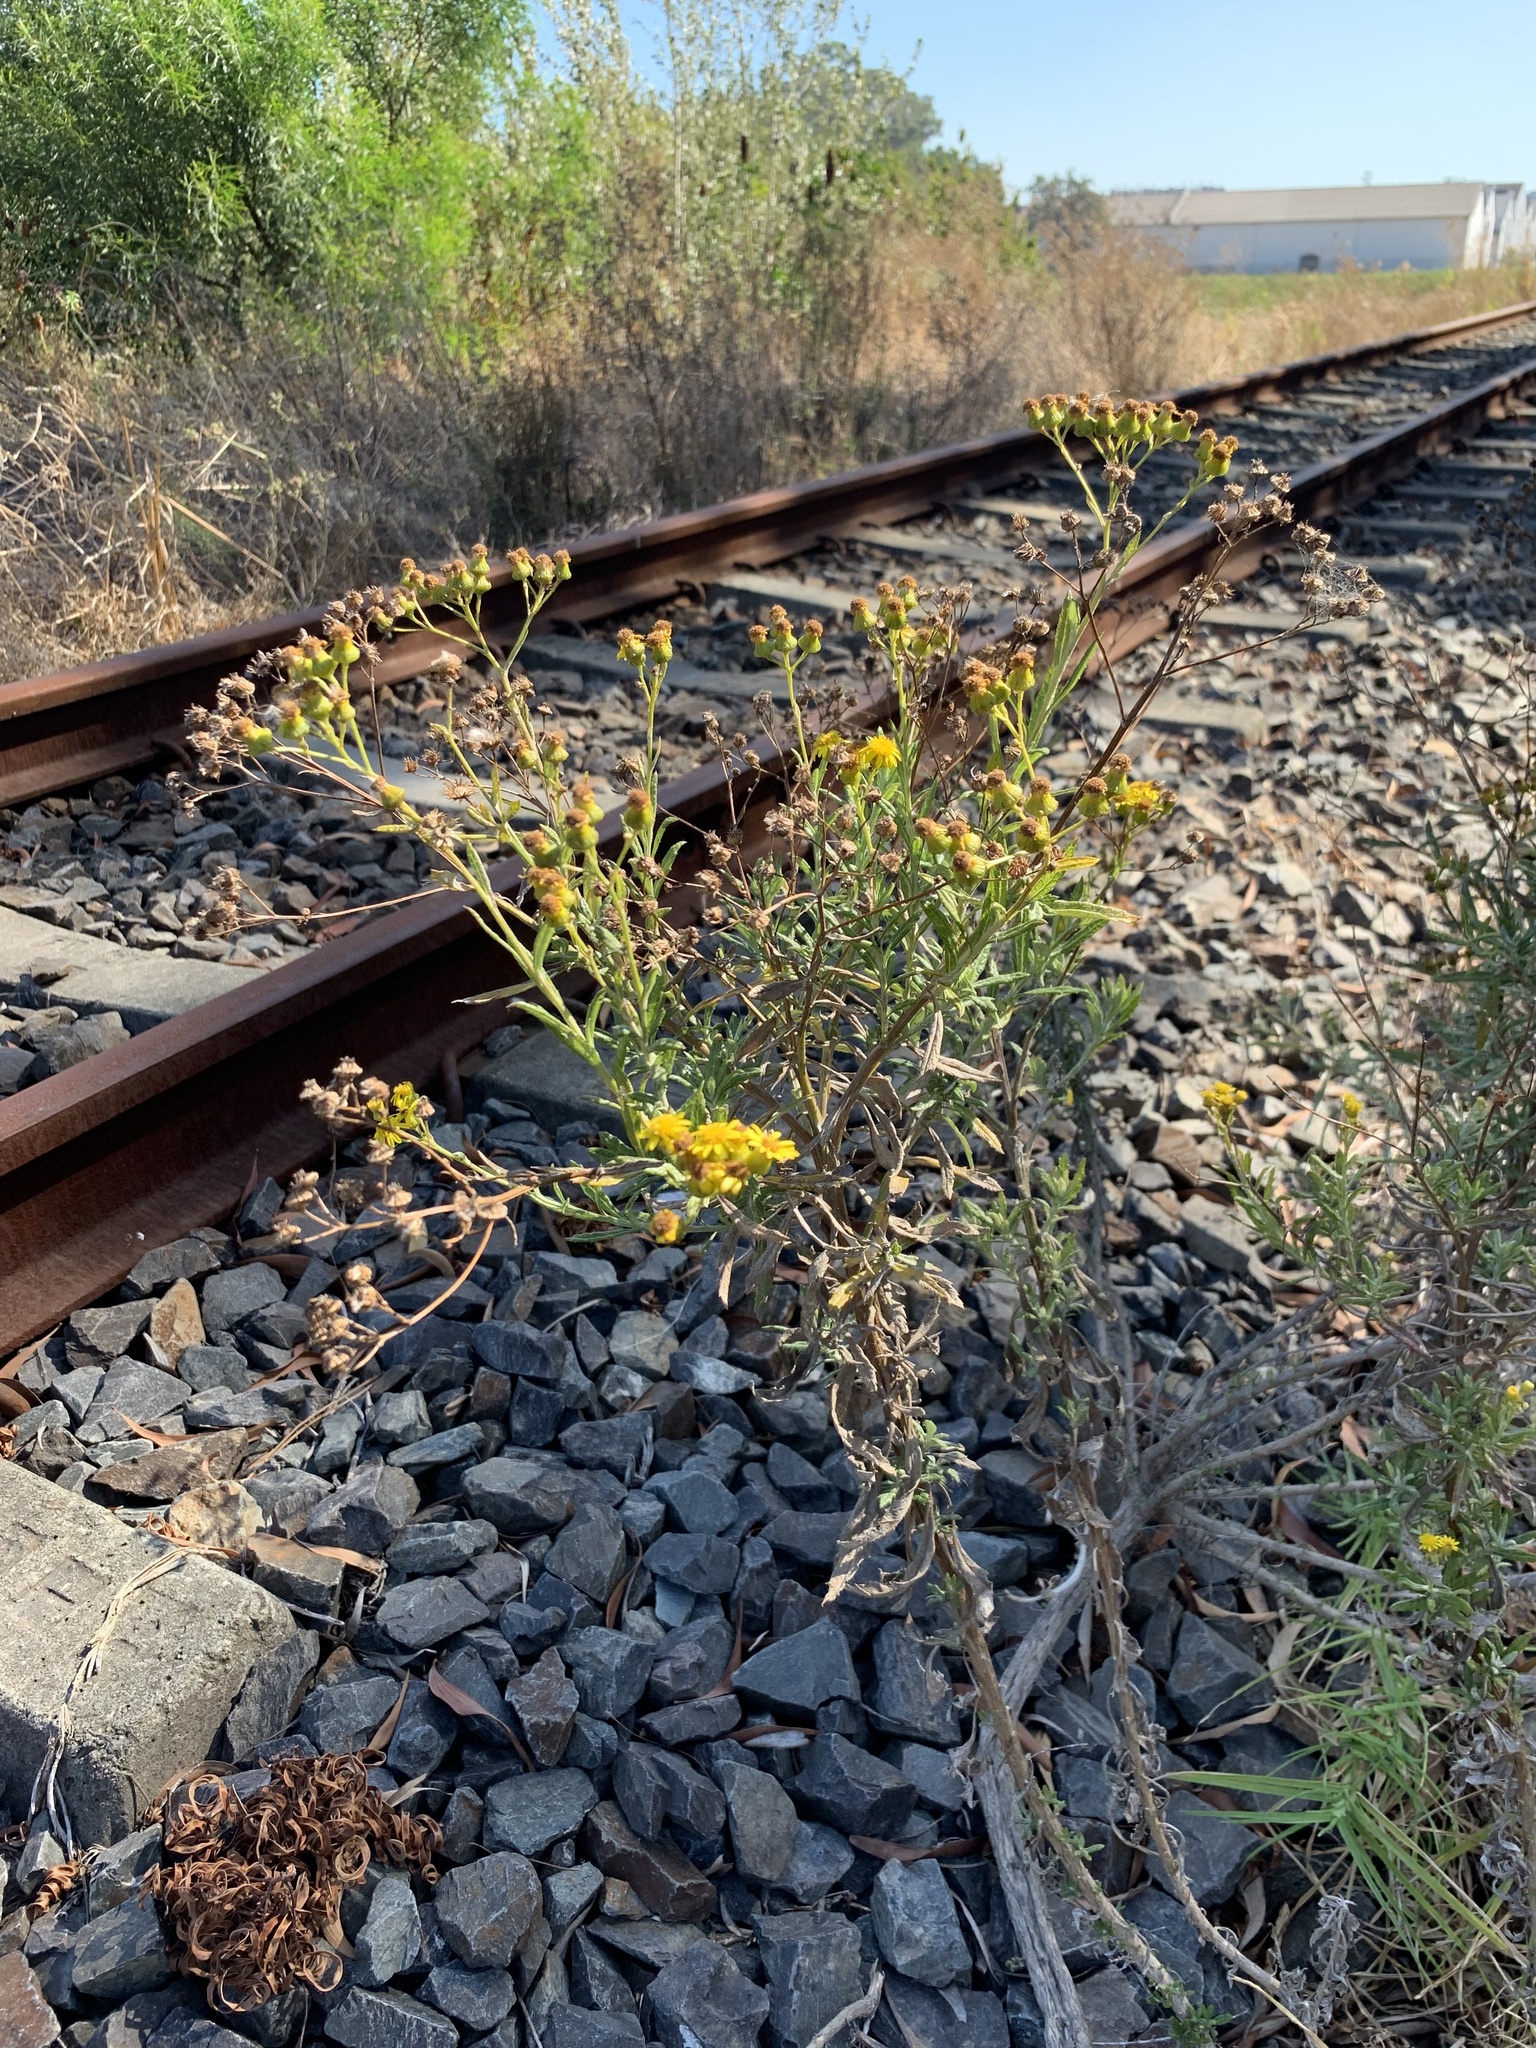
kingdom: Plantae
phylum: Tracheophyta
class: Magnoliopsida
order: Asterales
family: Asteraceae
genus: Senecio
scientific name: Senecio pterophorus
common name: Shoddy ragwort
